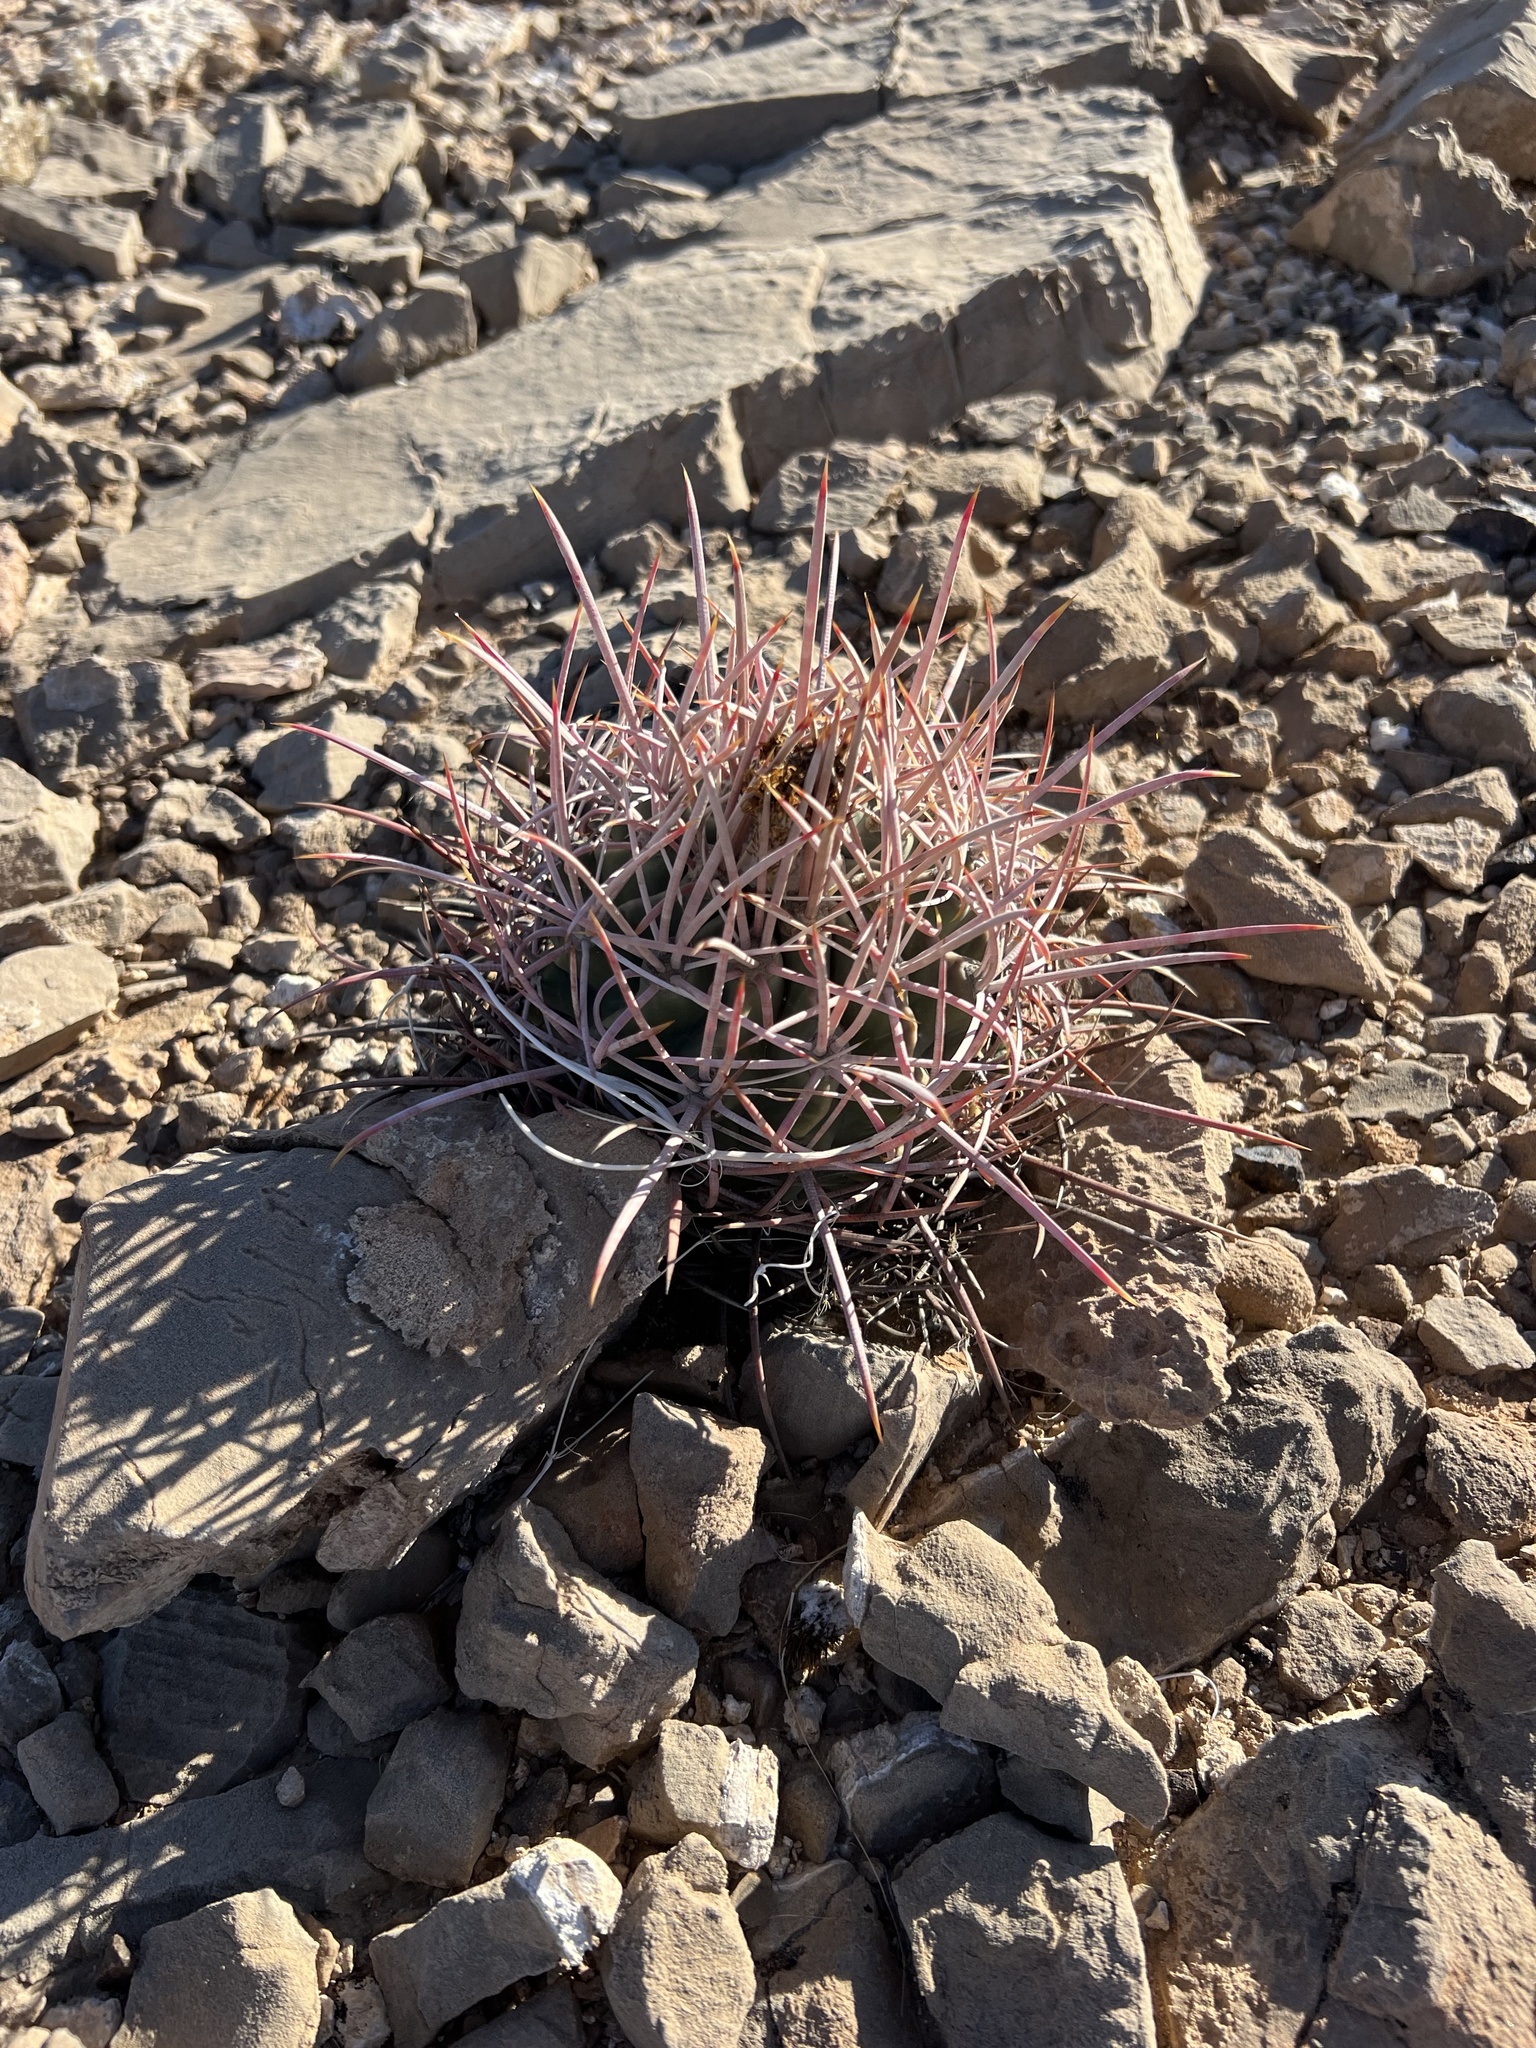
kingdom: Plantae
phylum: Tracheophyta
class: Magnoliopsida
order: Caryophyllales
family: Cactaceae
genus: Echinocactus
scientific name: Echinocactus polycephalus
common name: Cottontop cactus
